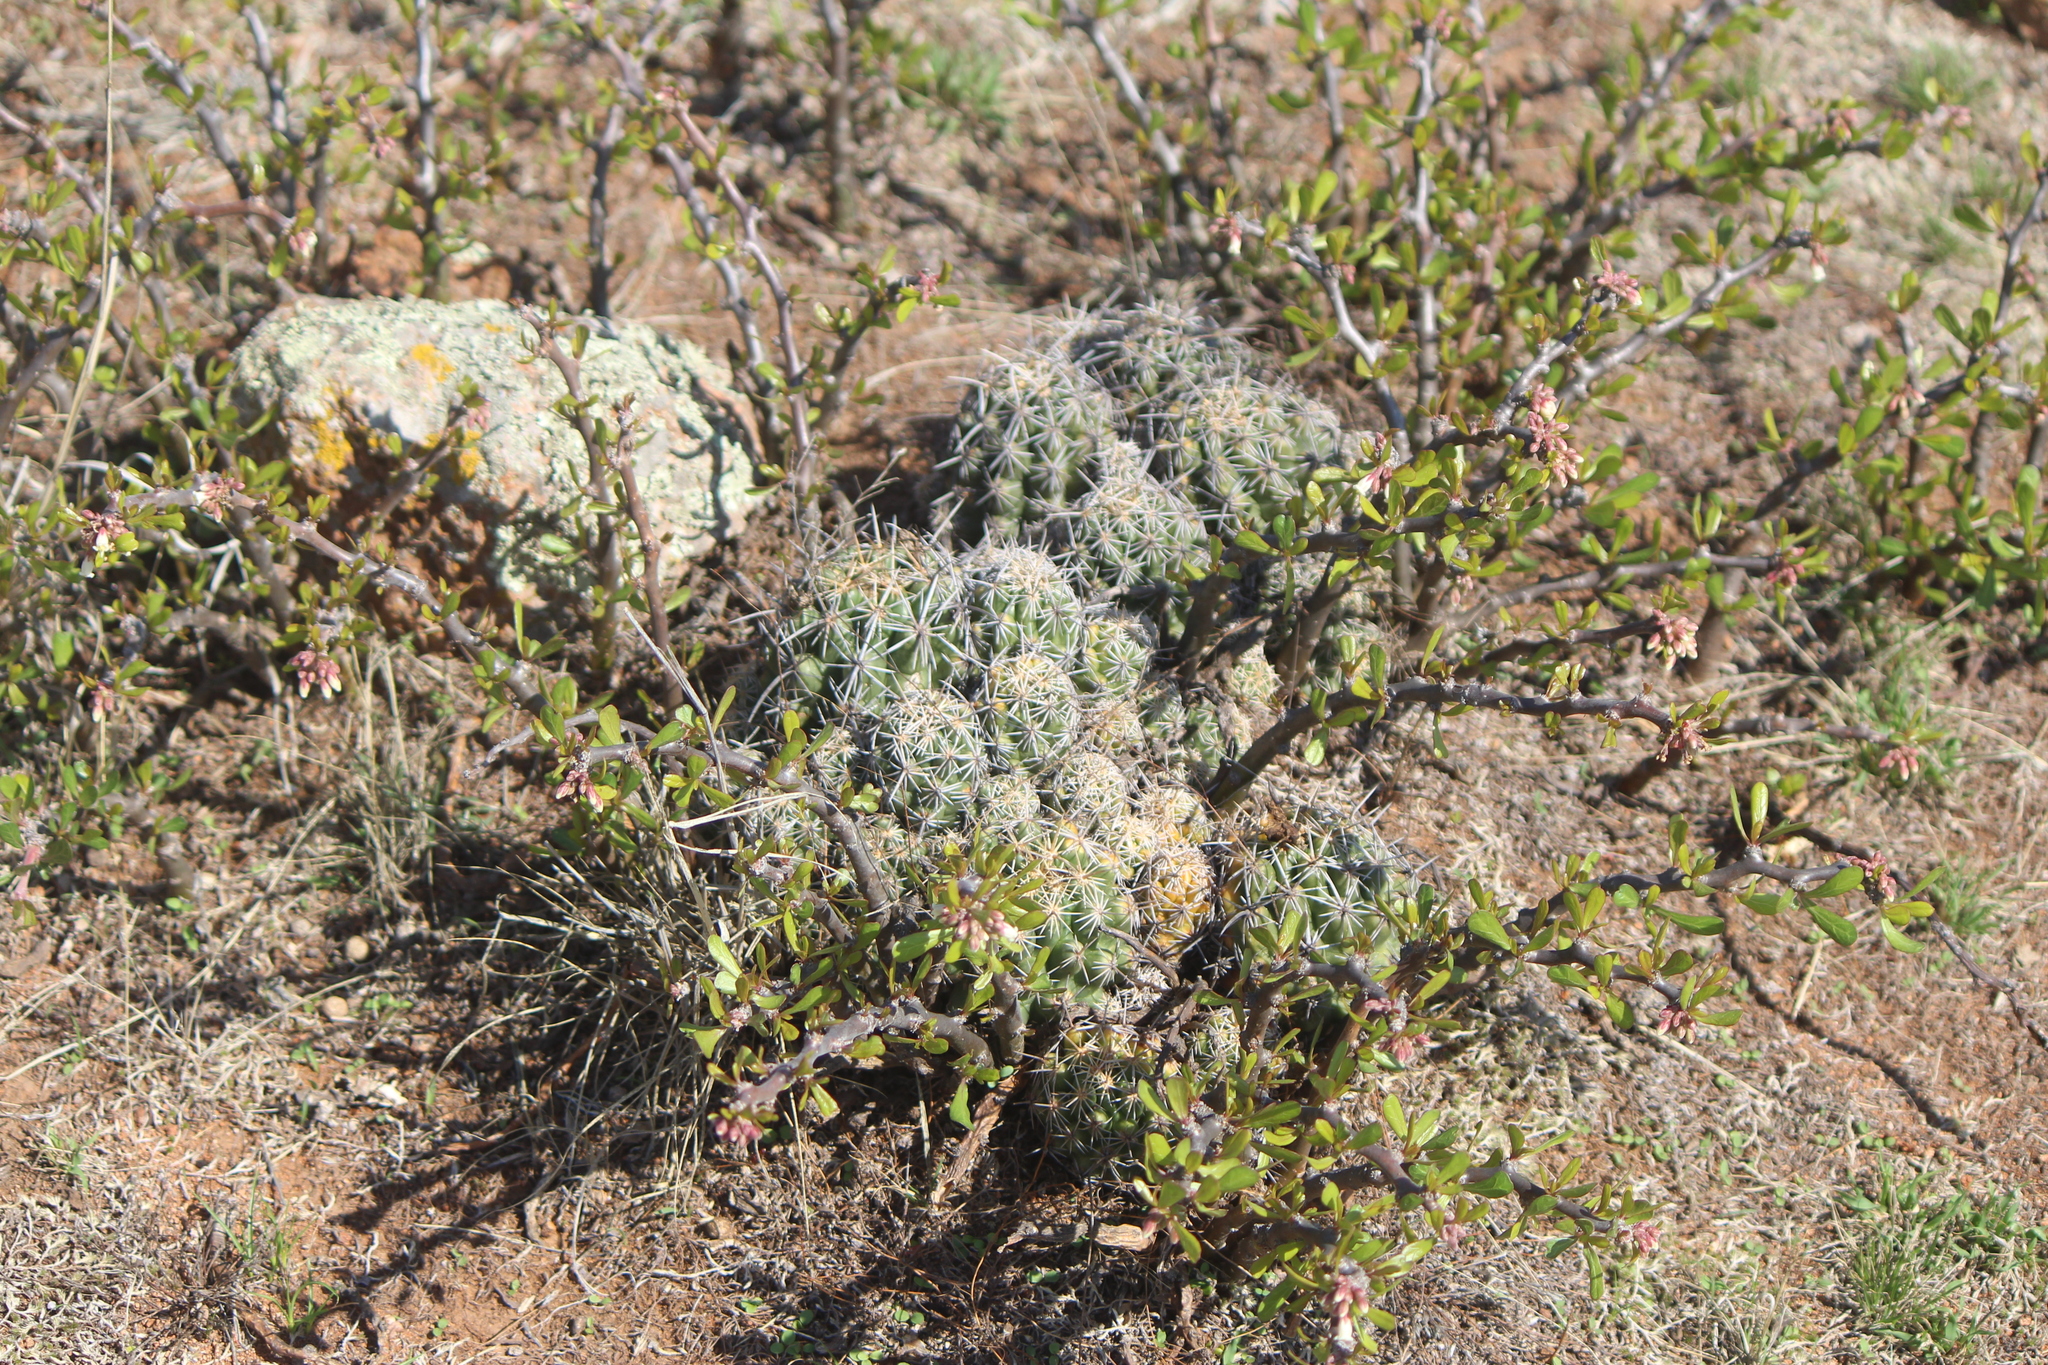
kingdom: Plantae
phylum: Tracheophyta
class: Magnoliopsida
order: Caryophyllales
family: Cactaceae
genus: Thelocactus
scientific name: Thelocactus leucacanthus
